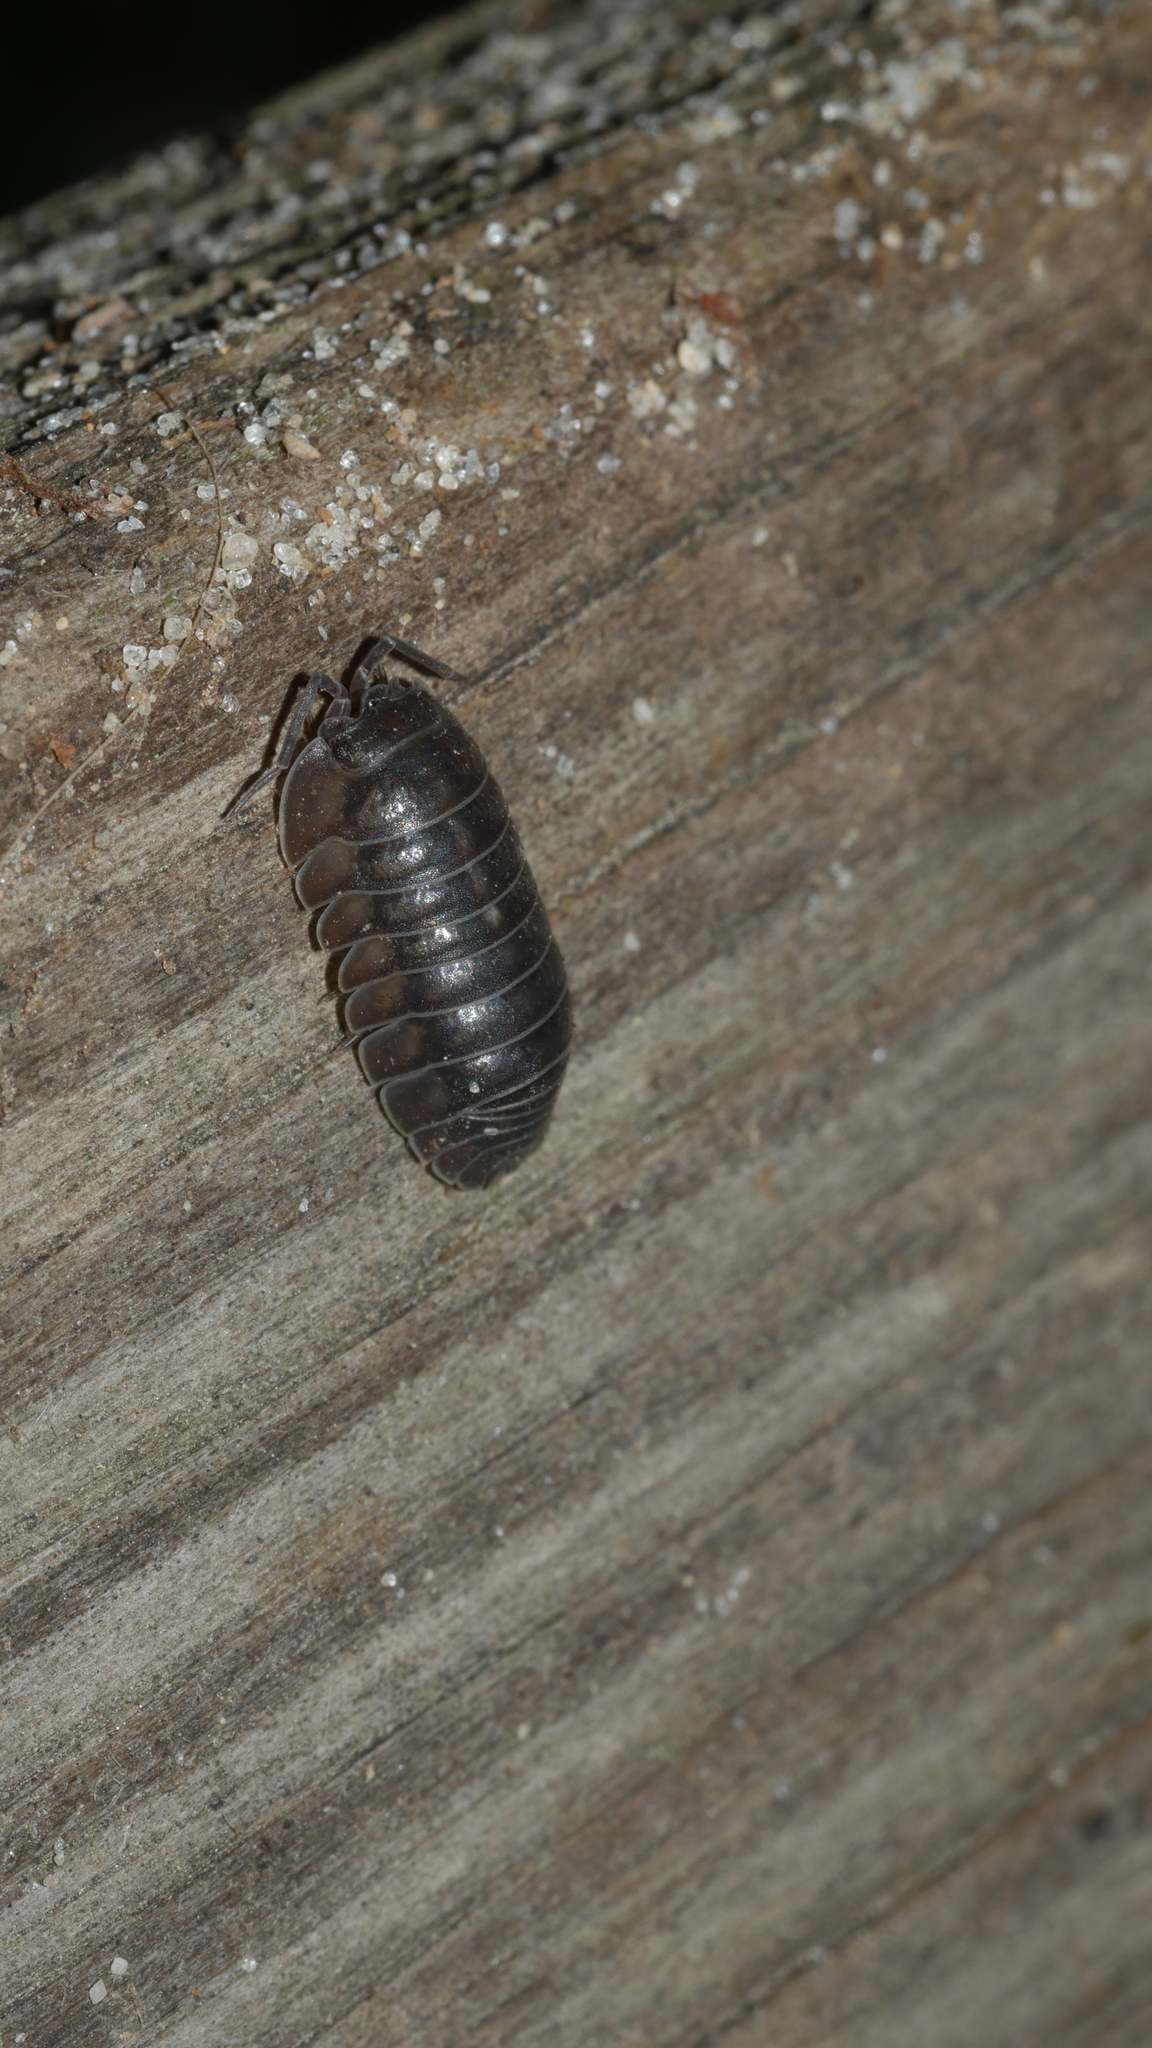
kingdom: Animalia
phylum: Arthropoda
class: Malacostraca
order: Isopoda
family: Armadillidiidae
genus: Armadillidium
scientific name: Armadillidium nasatum
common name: Isopod
